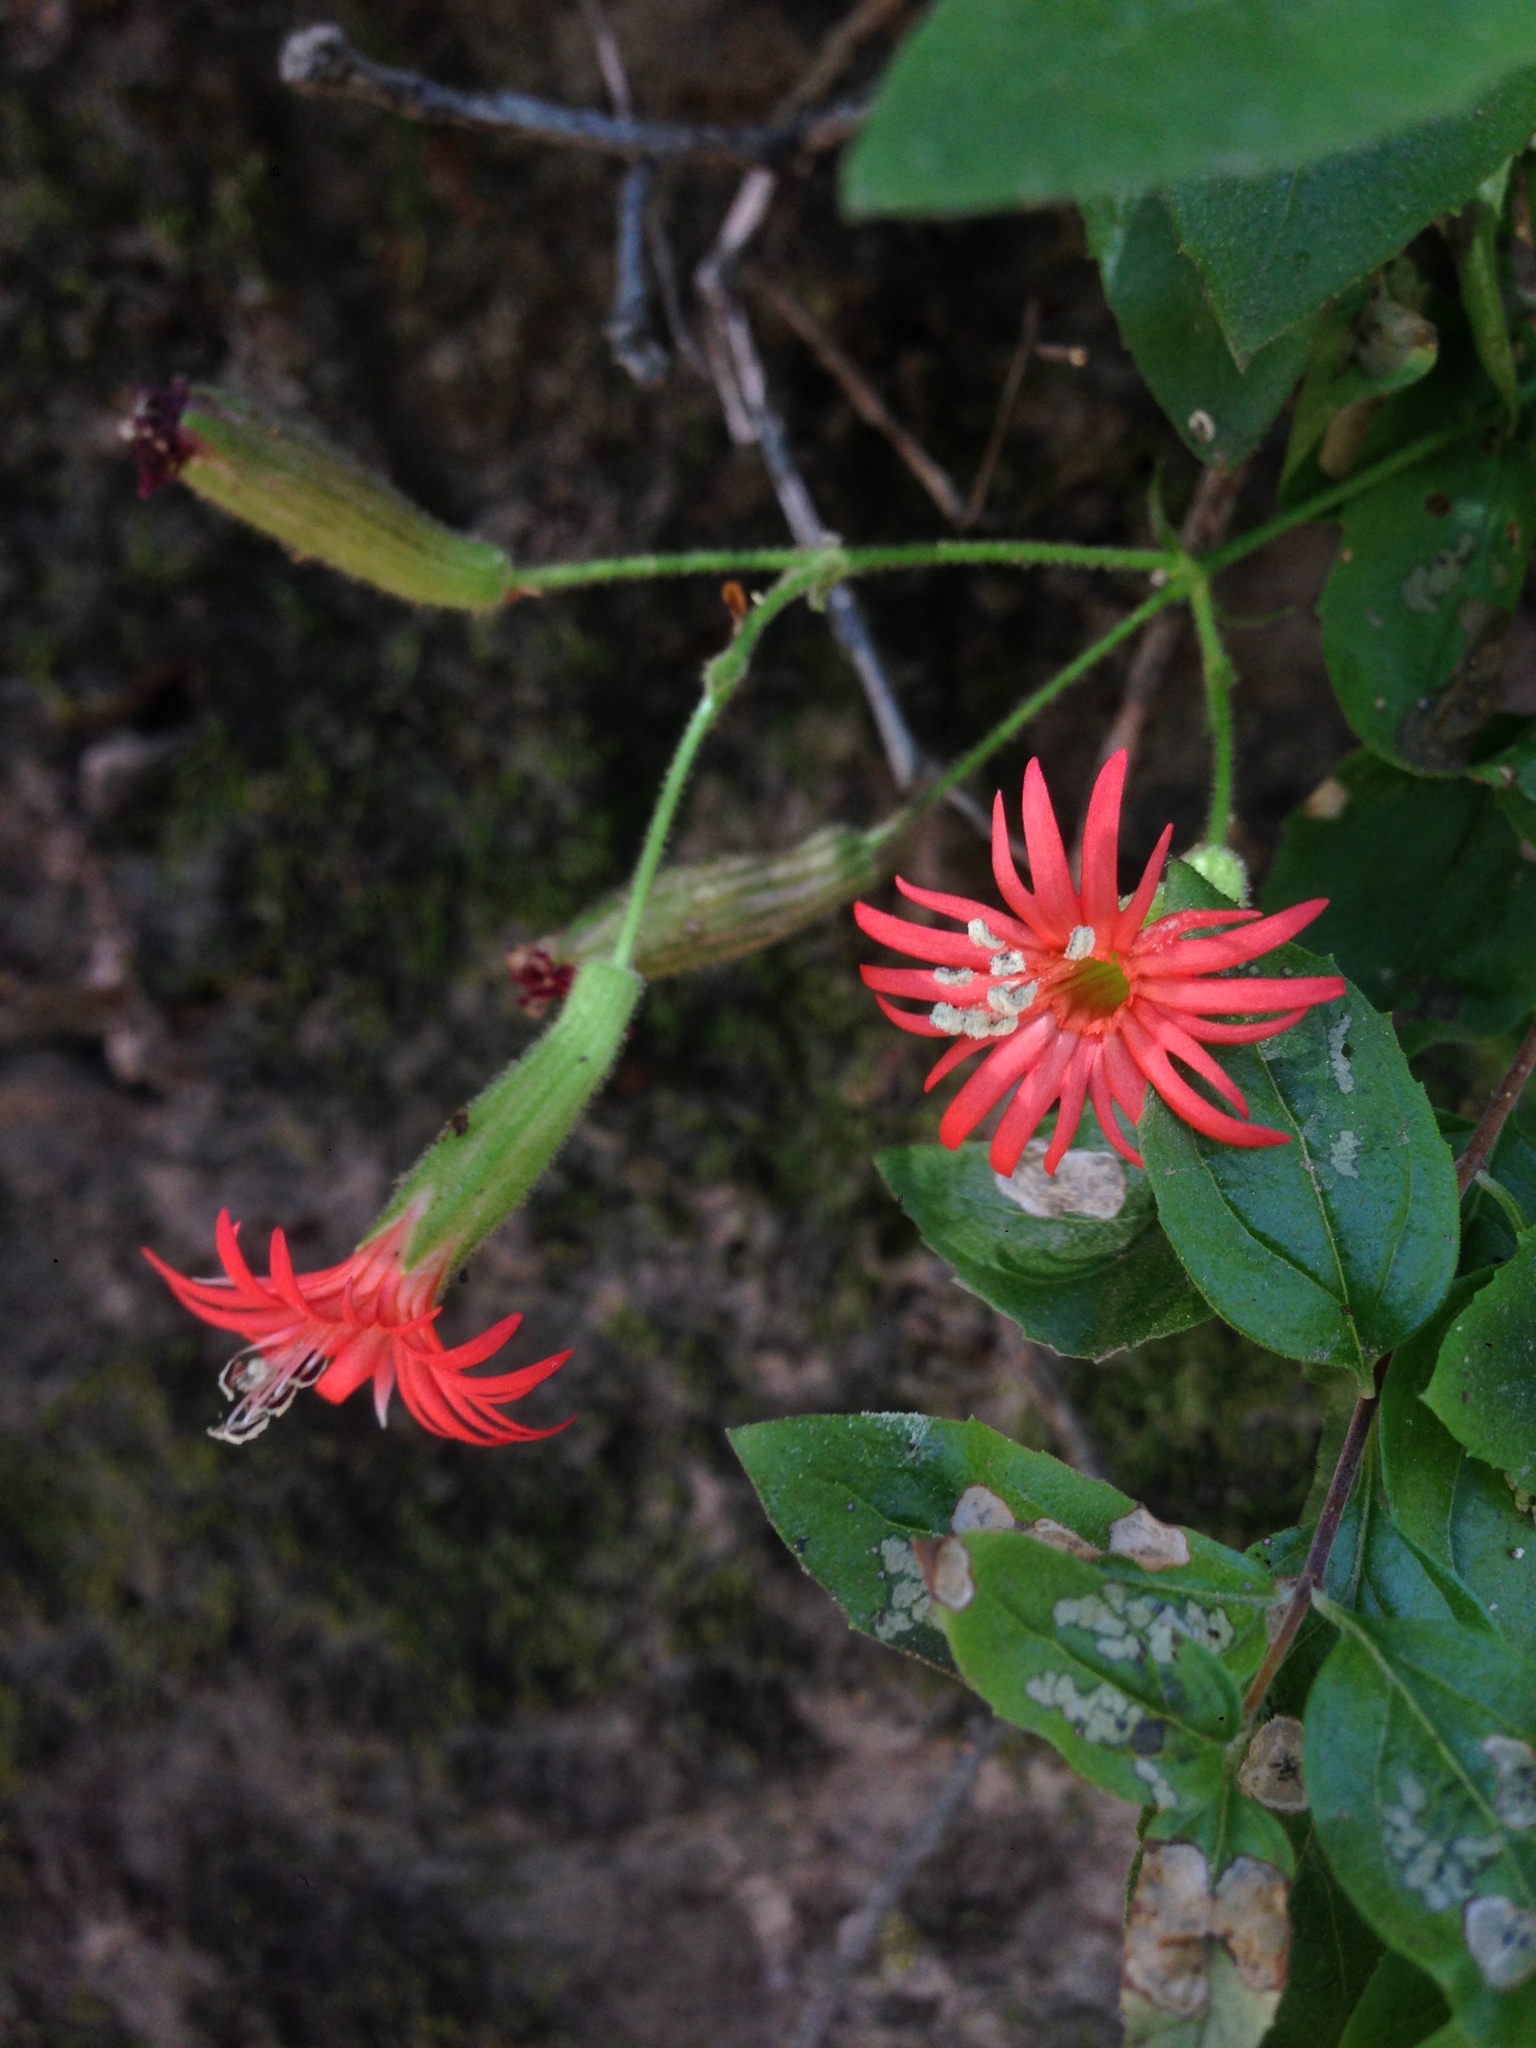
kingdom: Plantae
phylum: Tracheophyta
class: Magnoliopsida
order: Caryophyllales
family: Caryophyllaceae
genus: Silene
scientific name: Silene laciniata
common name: Indian-pink
